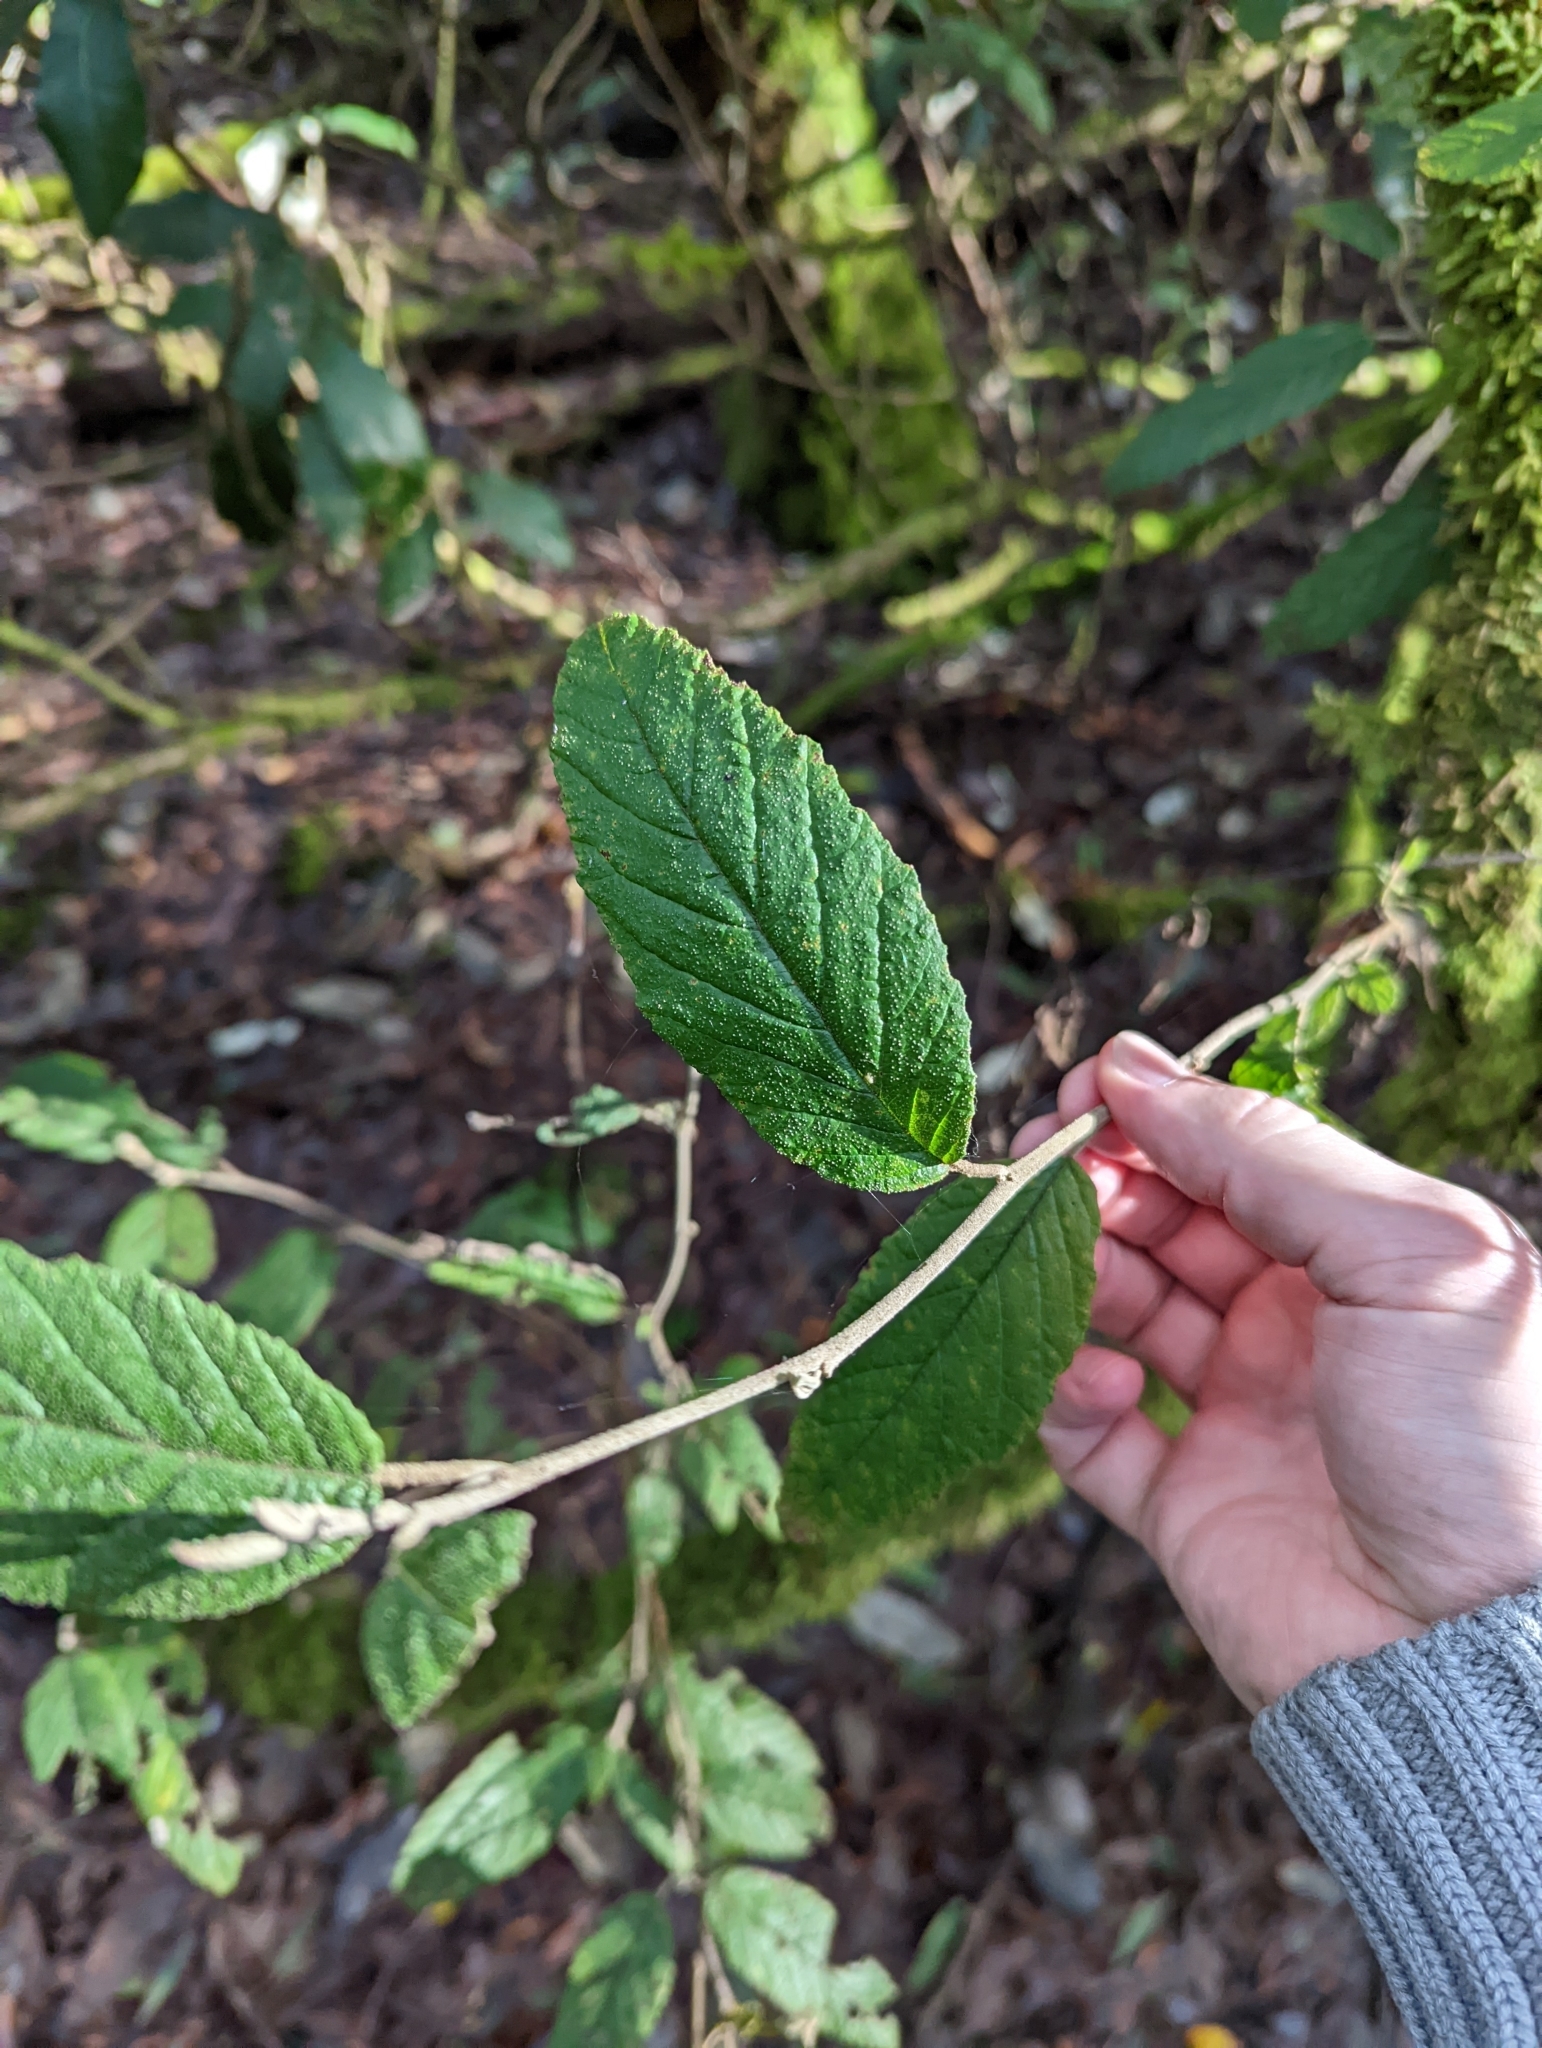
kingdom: Plantae
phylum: Tracheophyta
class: Magnoliopsida
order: Rosales
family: Rhamnaceae
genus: Pomaderris
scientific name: Pomaderris apetala
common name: Hazel pomaderris
